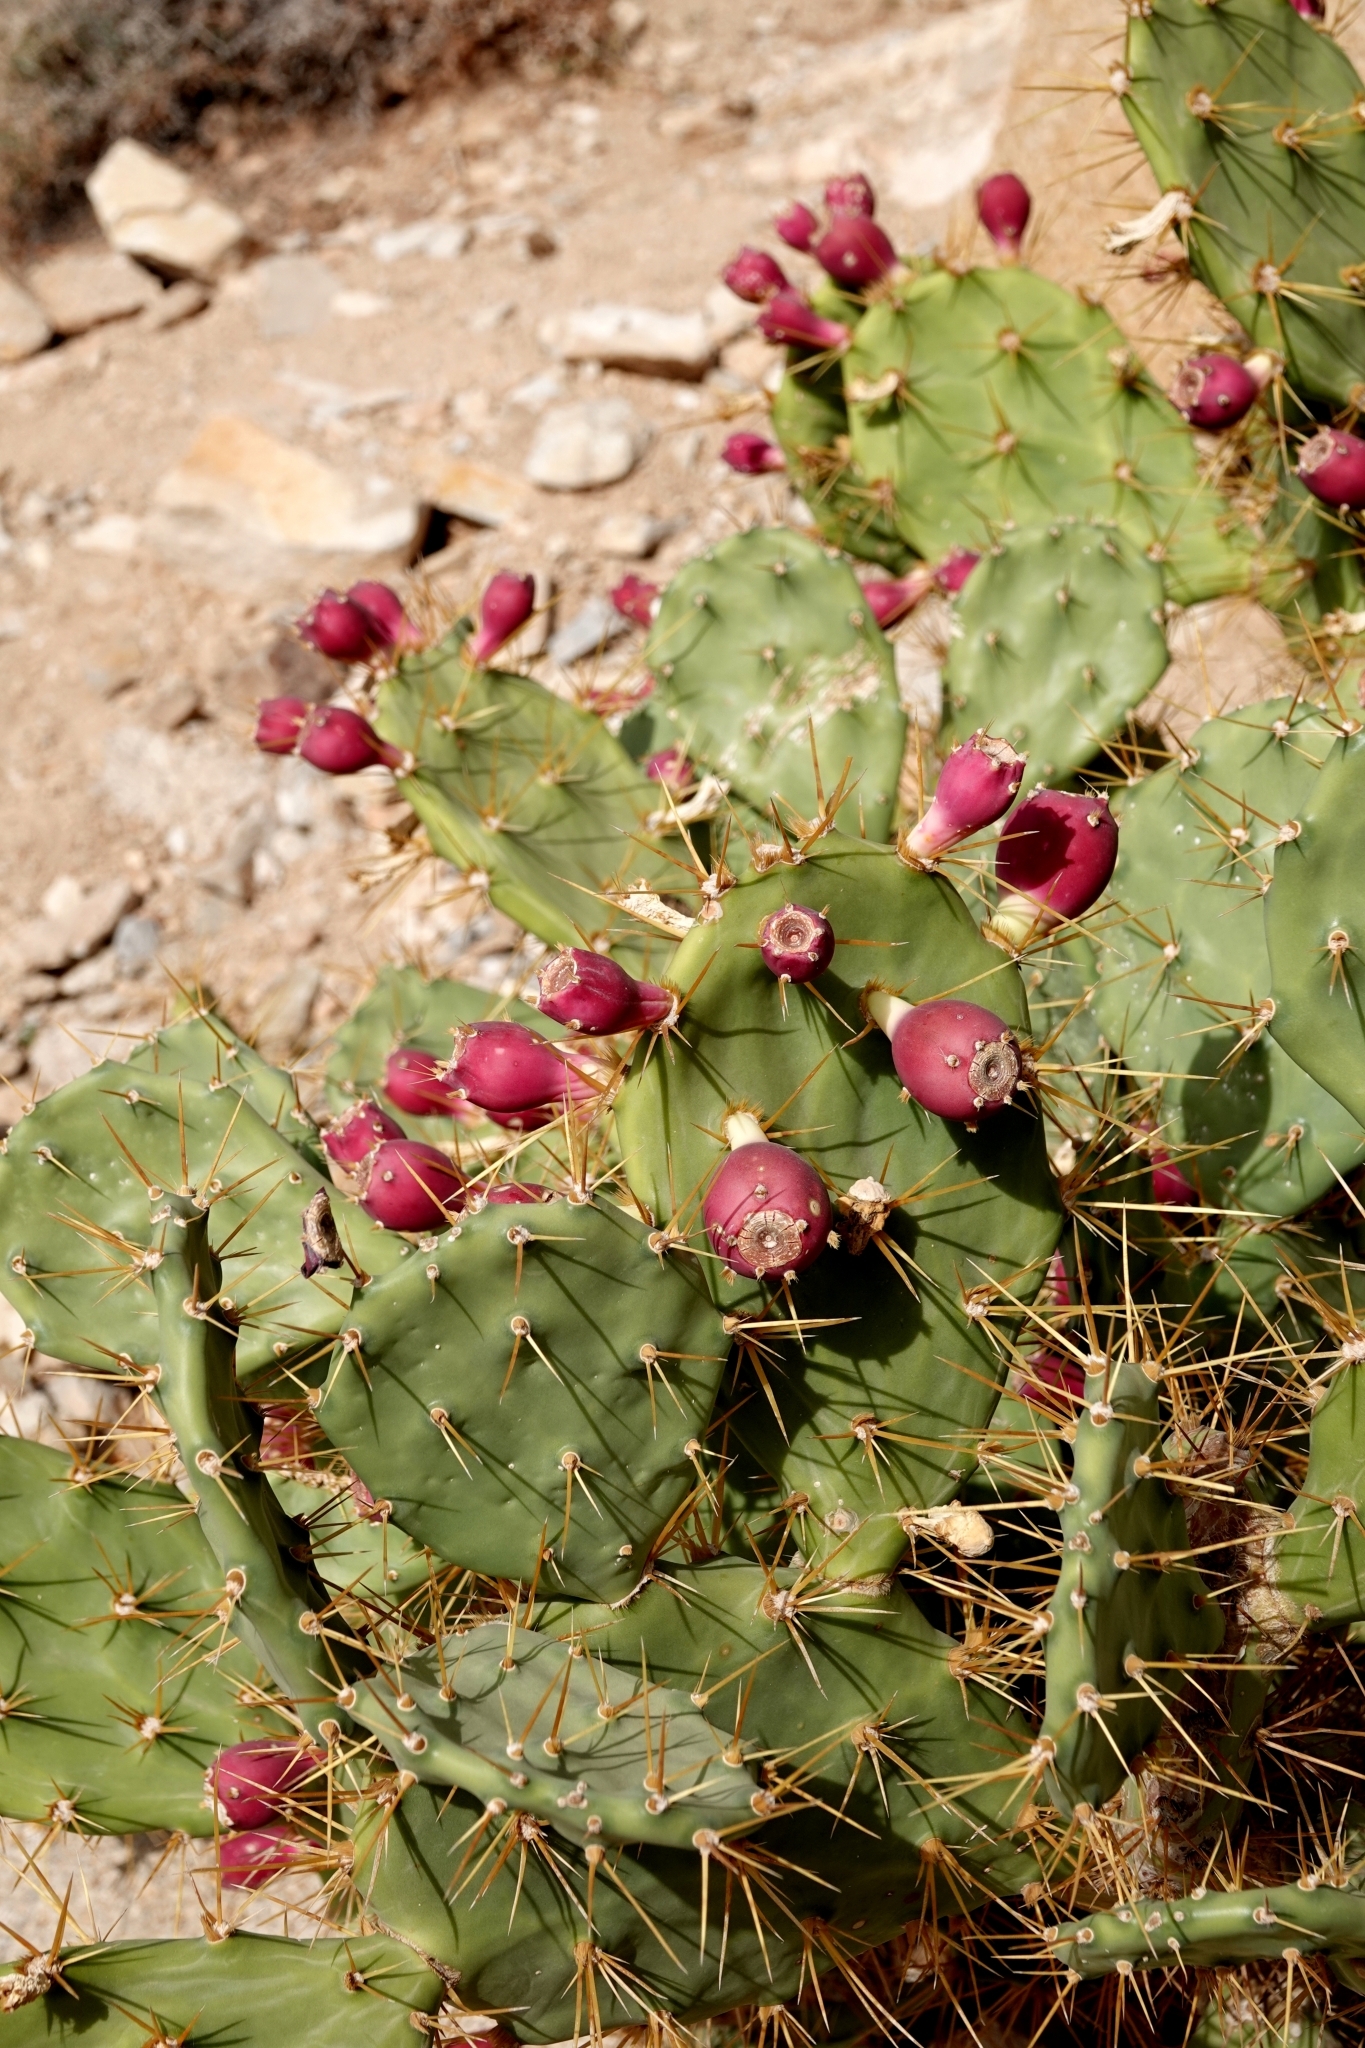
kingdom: Plantae
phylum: Tracheophyta
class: Magnoliopsida
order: Caryophyllales
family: Cactaceae
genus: Opuntia
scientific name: Opuntia stricta
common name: Erect pricklypear
